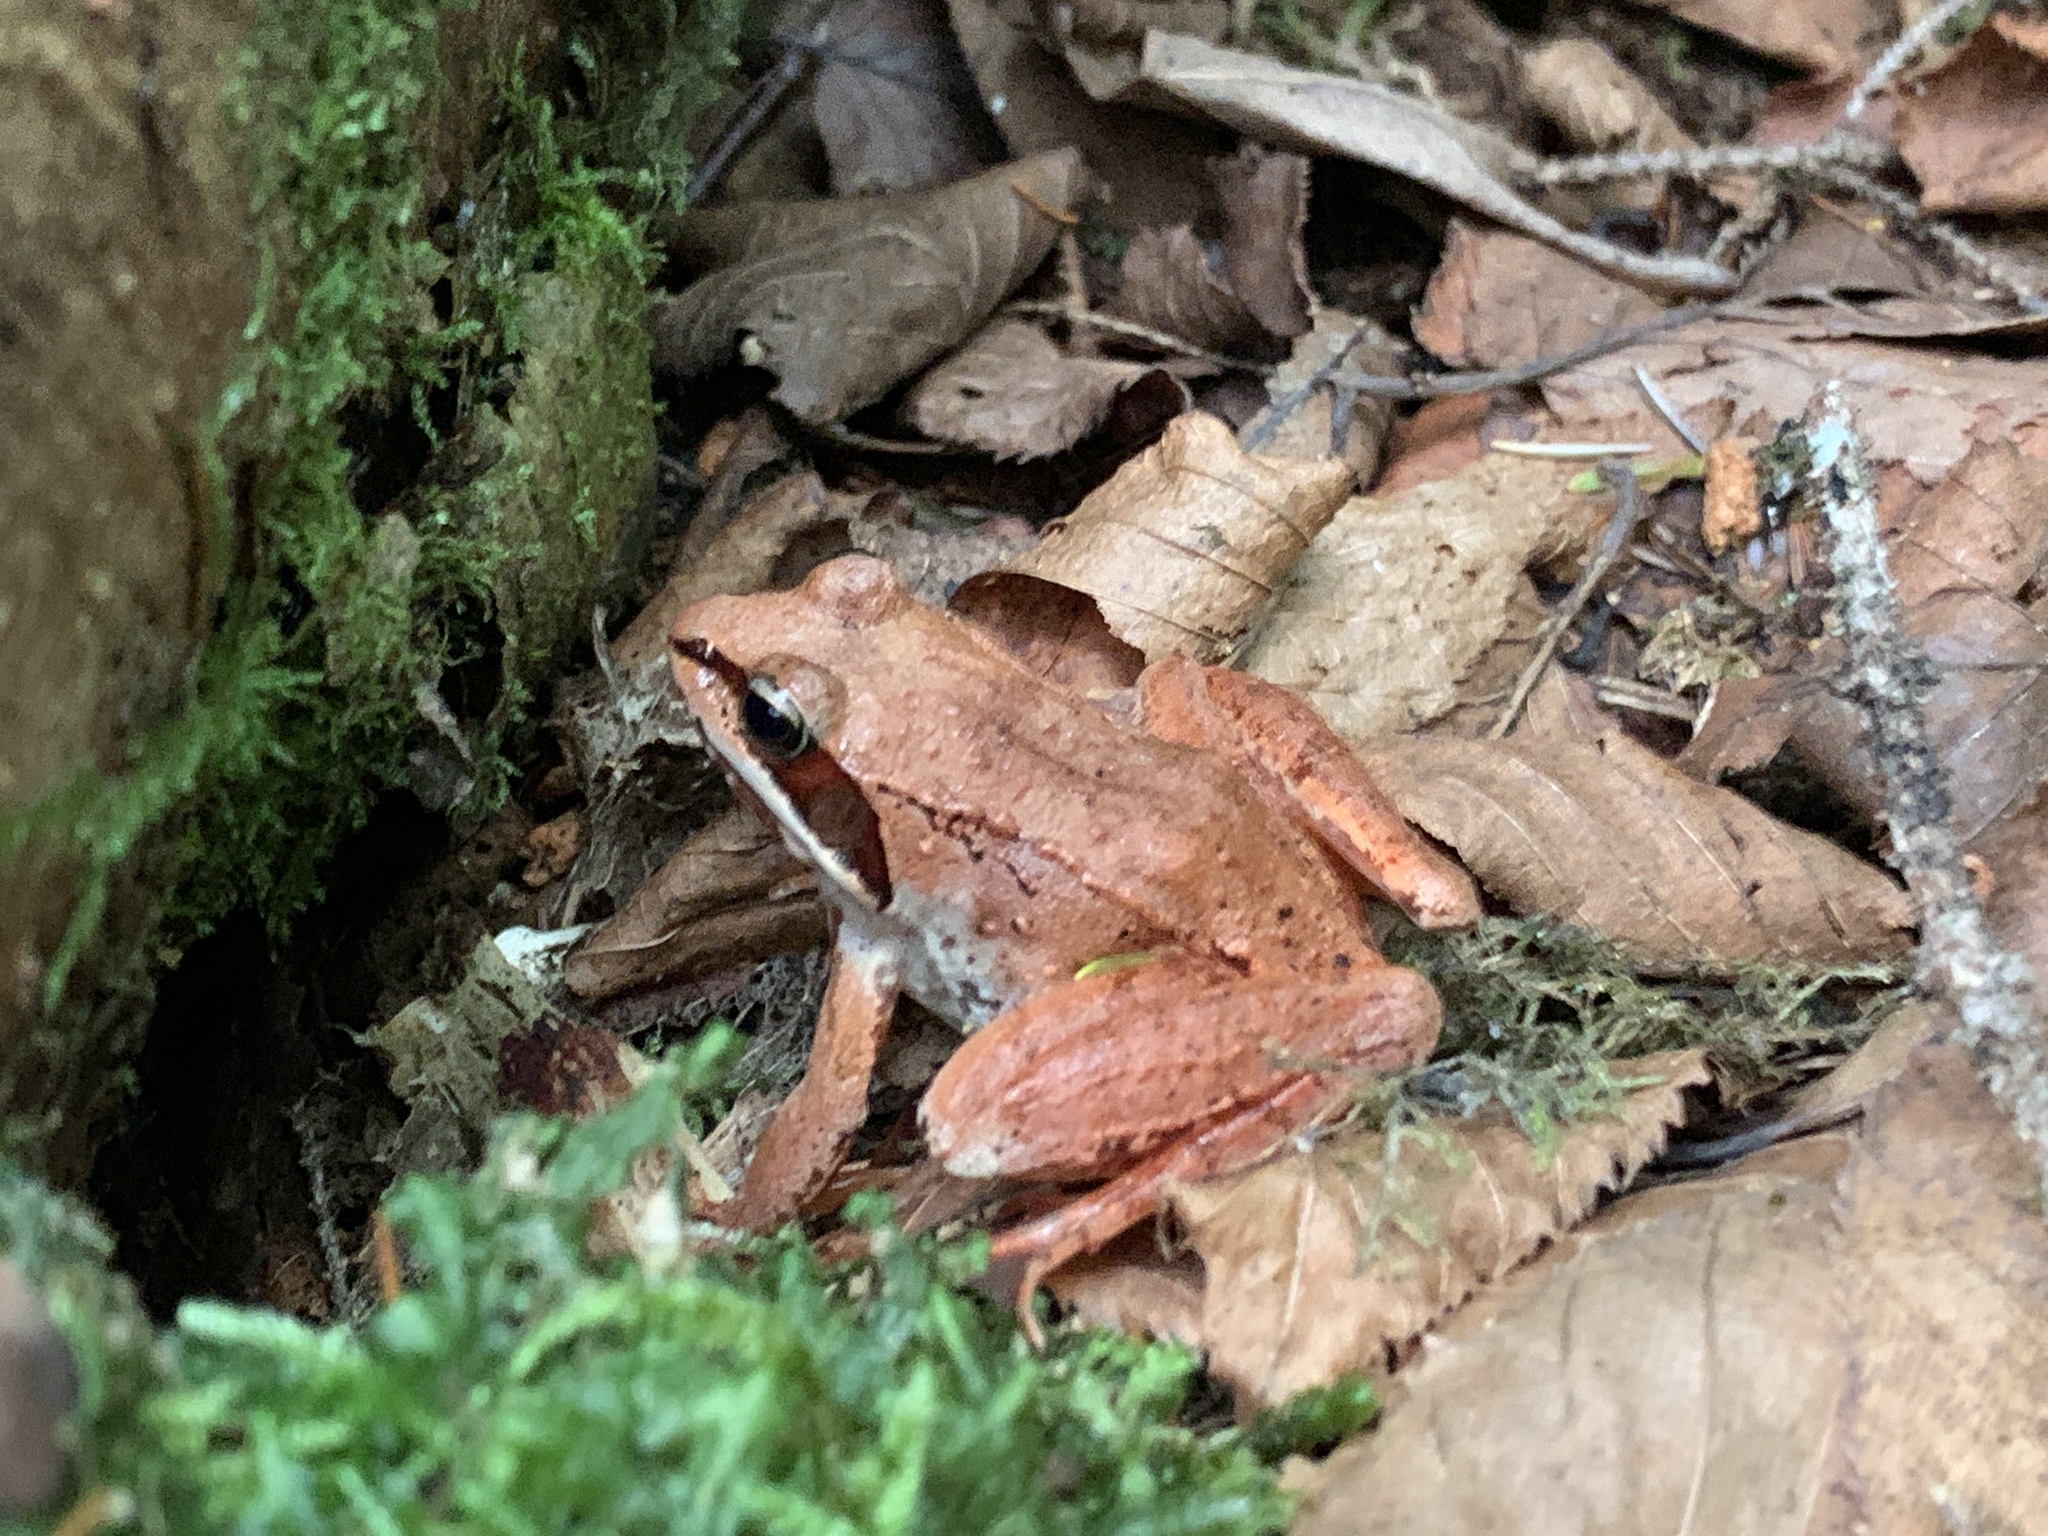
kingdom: Animalia
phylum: Chordata
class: Amphibia
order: Anura
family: Ranidae
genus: Lithobates
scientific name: Lithobates sylvaticus
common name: Wood frog
